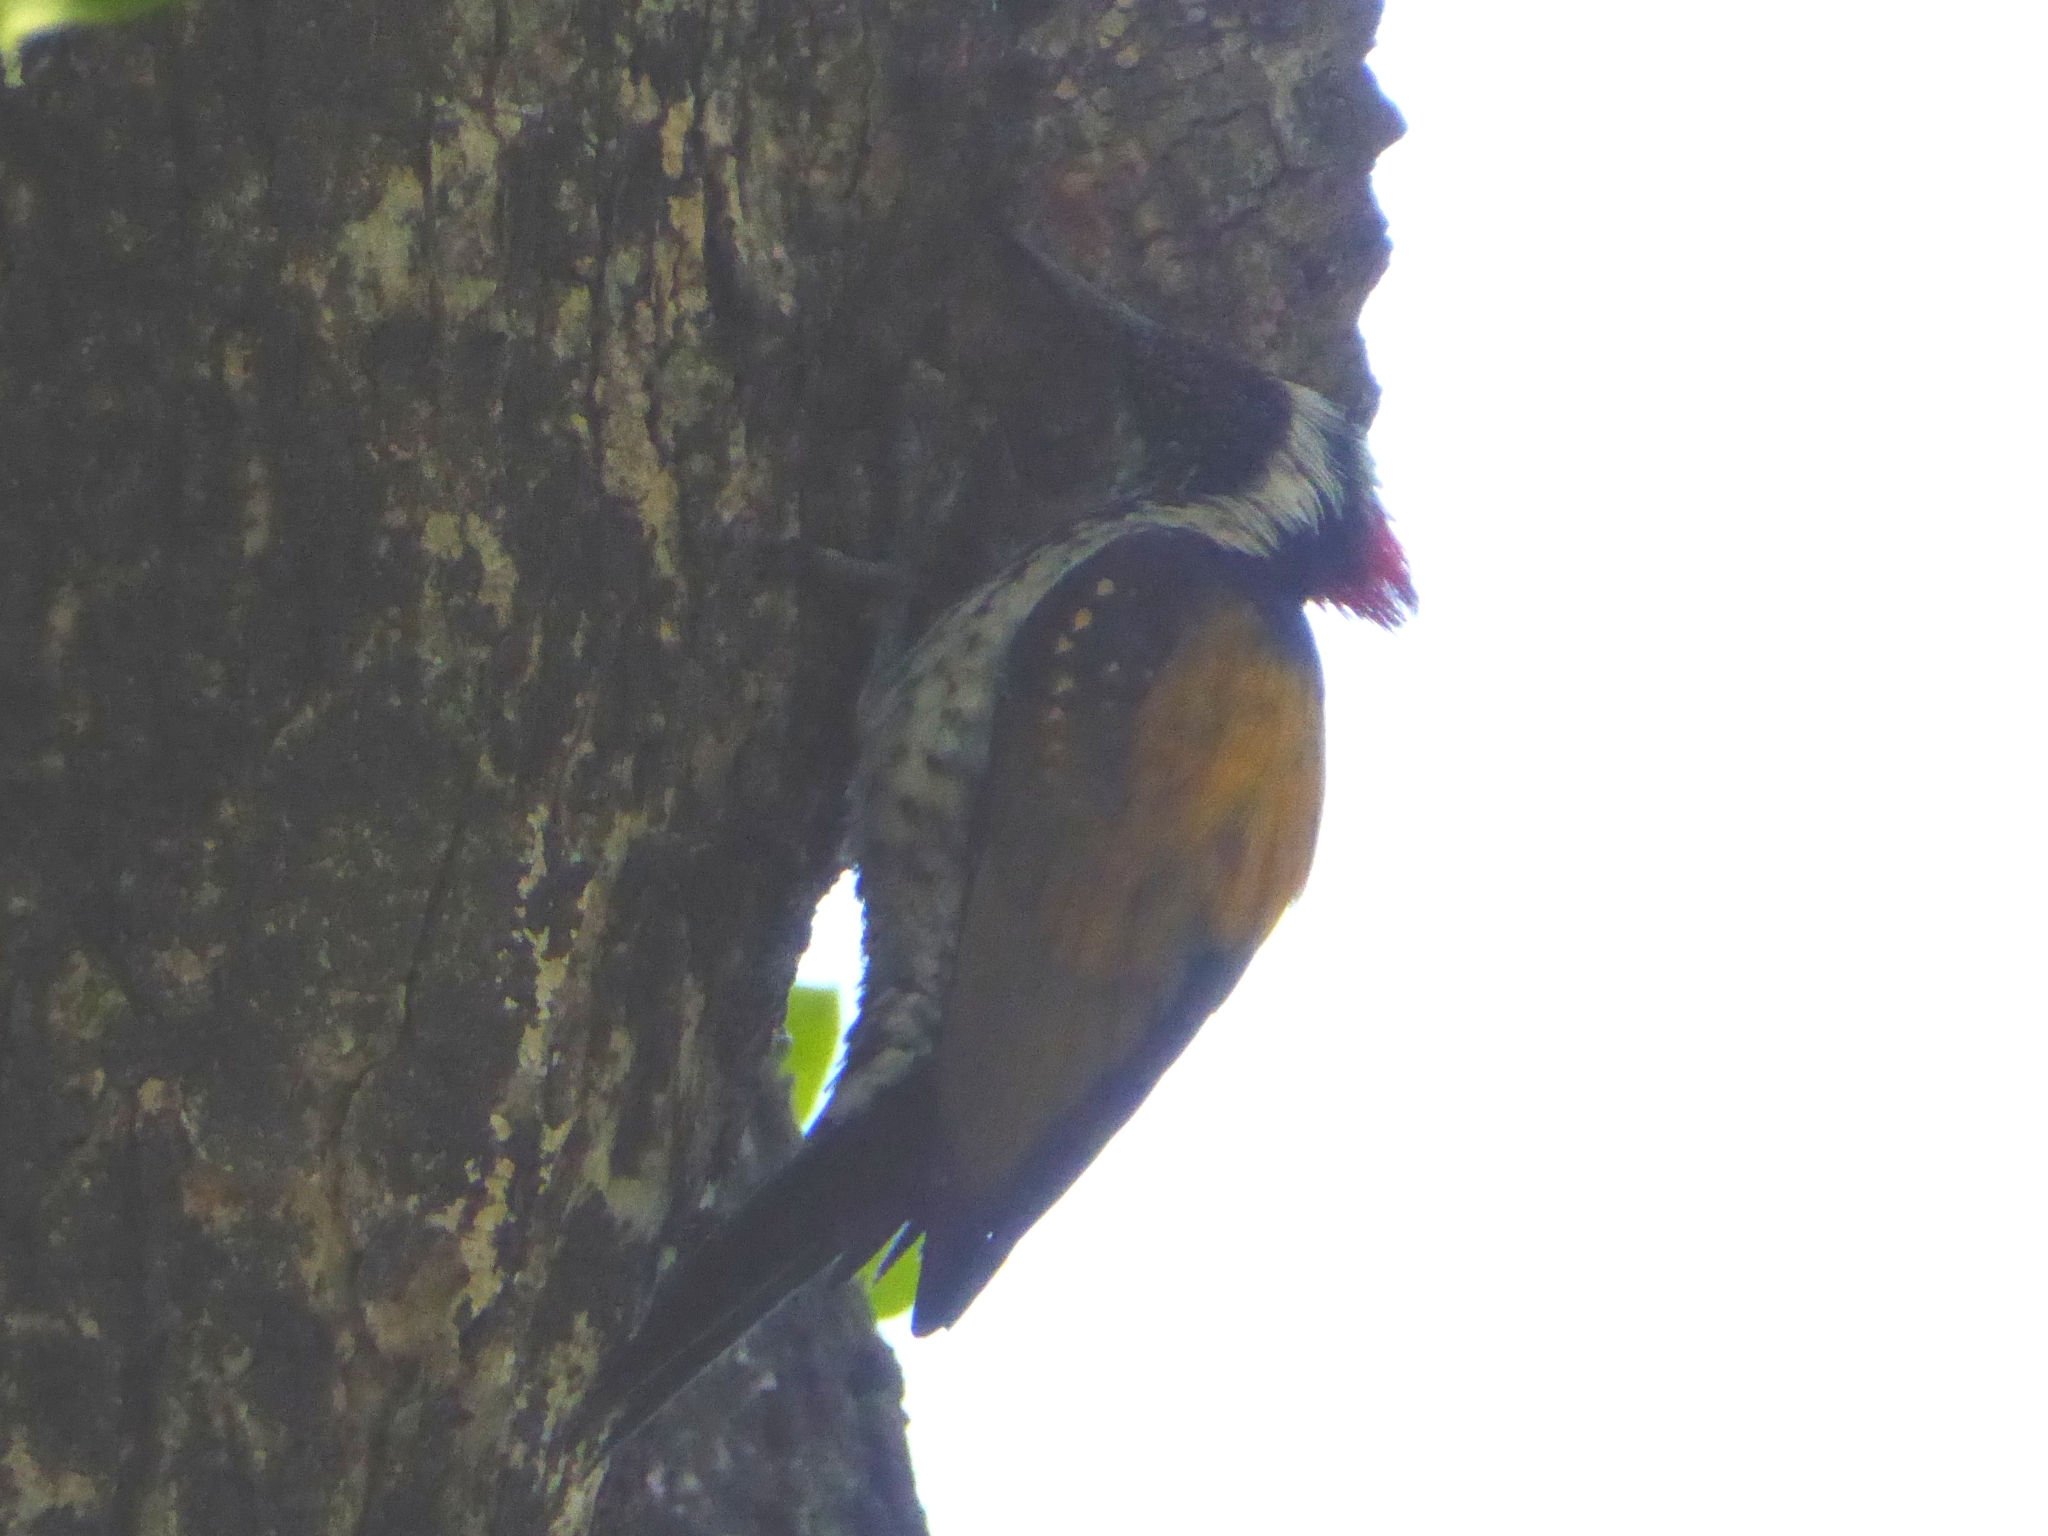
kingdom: Animalia
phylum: Chordata
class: Aves
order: Piciformes
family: Picidae
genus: Dinopium
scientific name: Dinopium benghalense
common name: Black-rumped flameback
